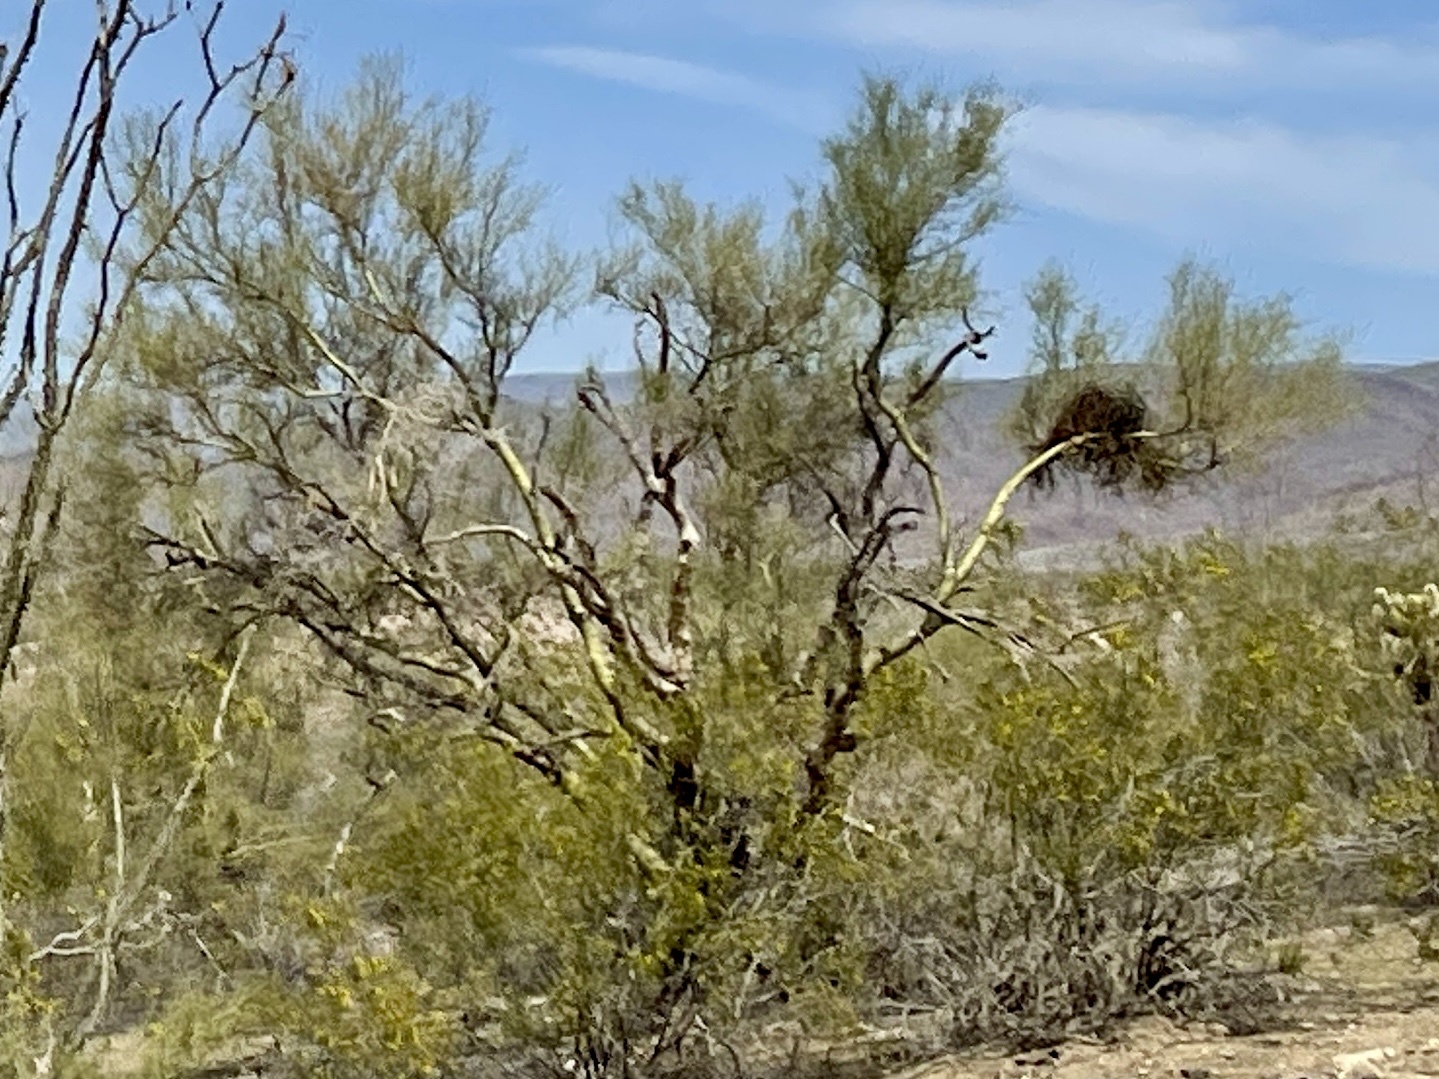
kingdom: Plantae
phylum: Tracheophyta
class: Magnoliopsida
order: Fabales
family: Fabaceae
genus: Parkinsonia
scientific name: Parkinsonia microphylla
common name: Yellow paloverde
